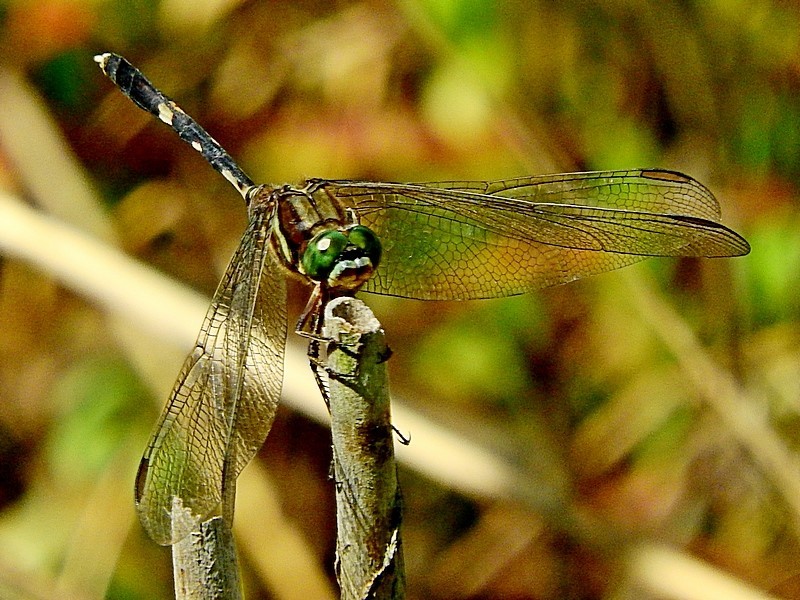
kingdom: Animalia
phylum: Arthropoda
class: Insecta
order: Odonata
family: Libellulidae
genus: Orthetrum
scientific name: Orthetrum sabina
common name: Slender skimmer
